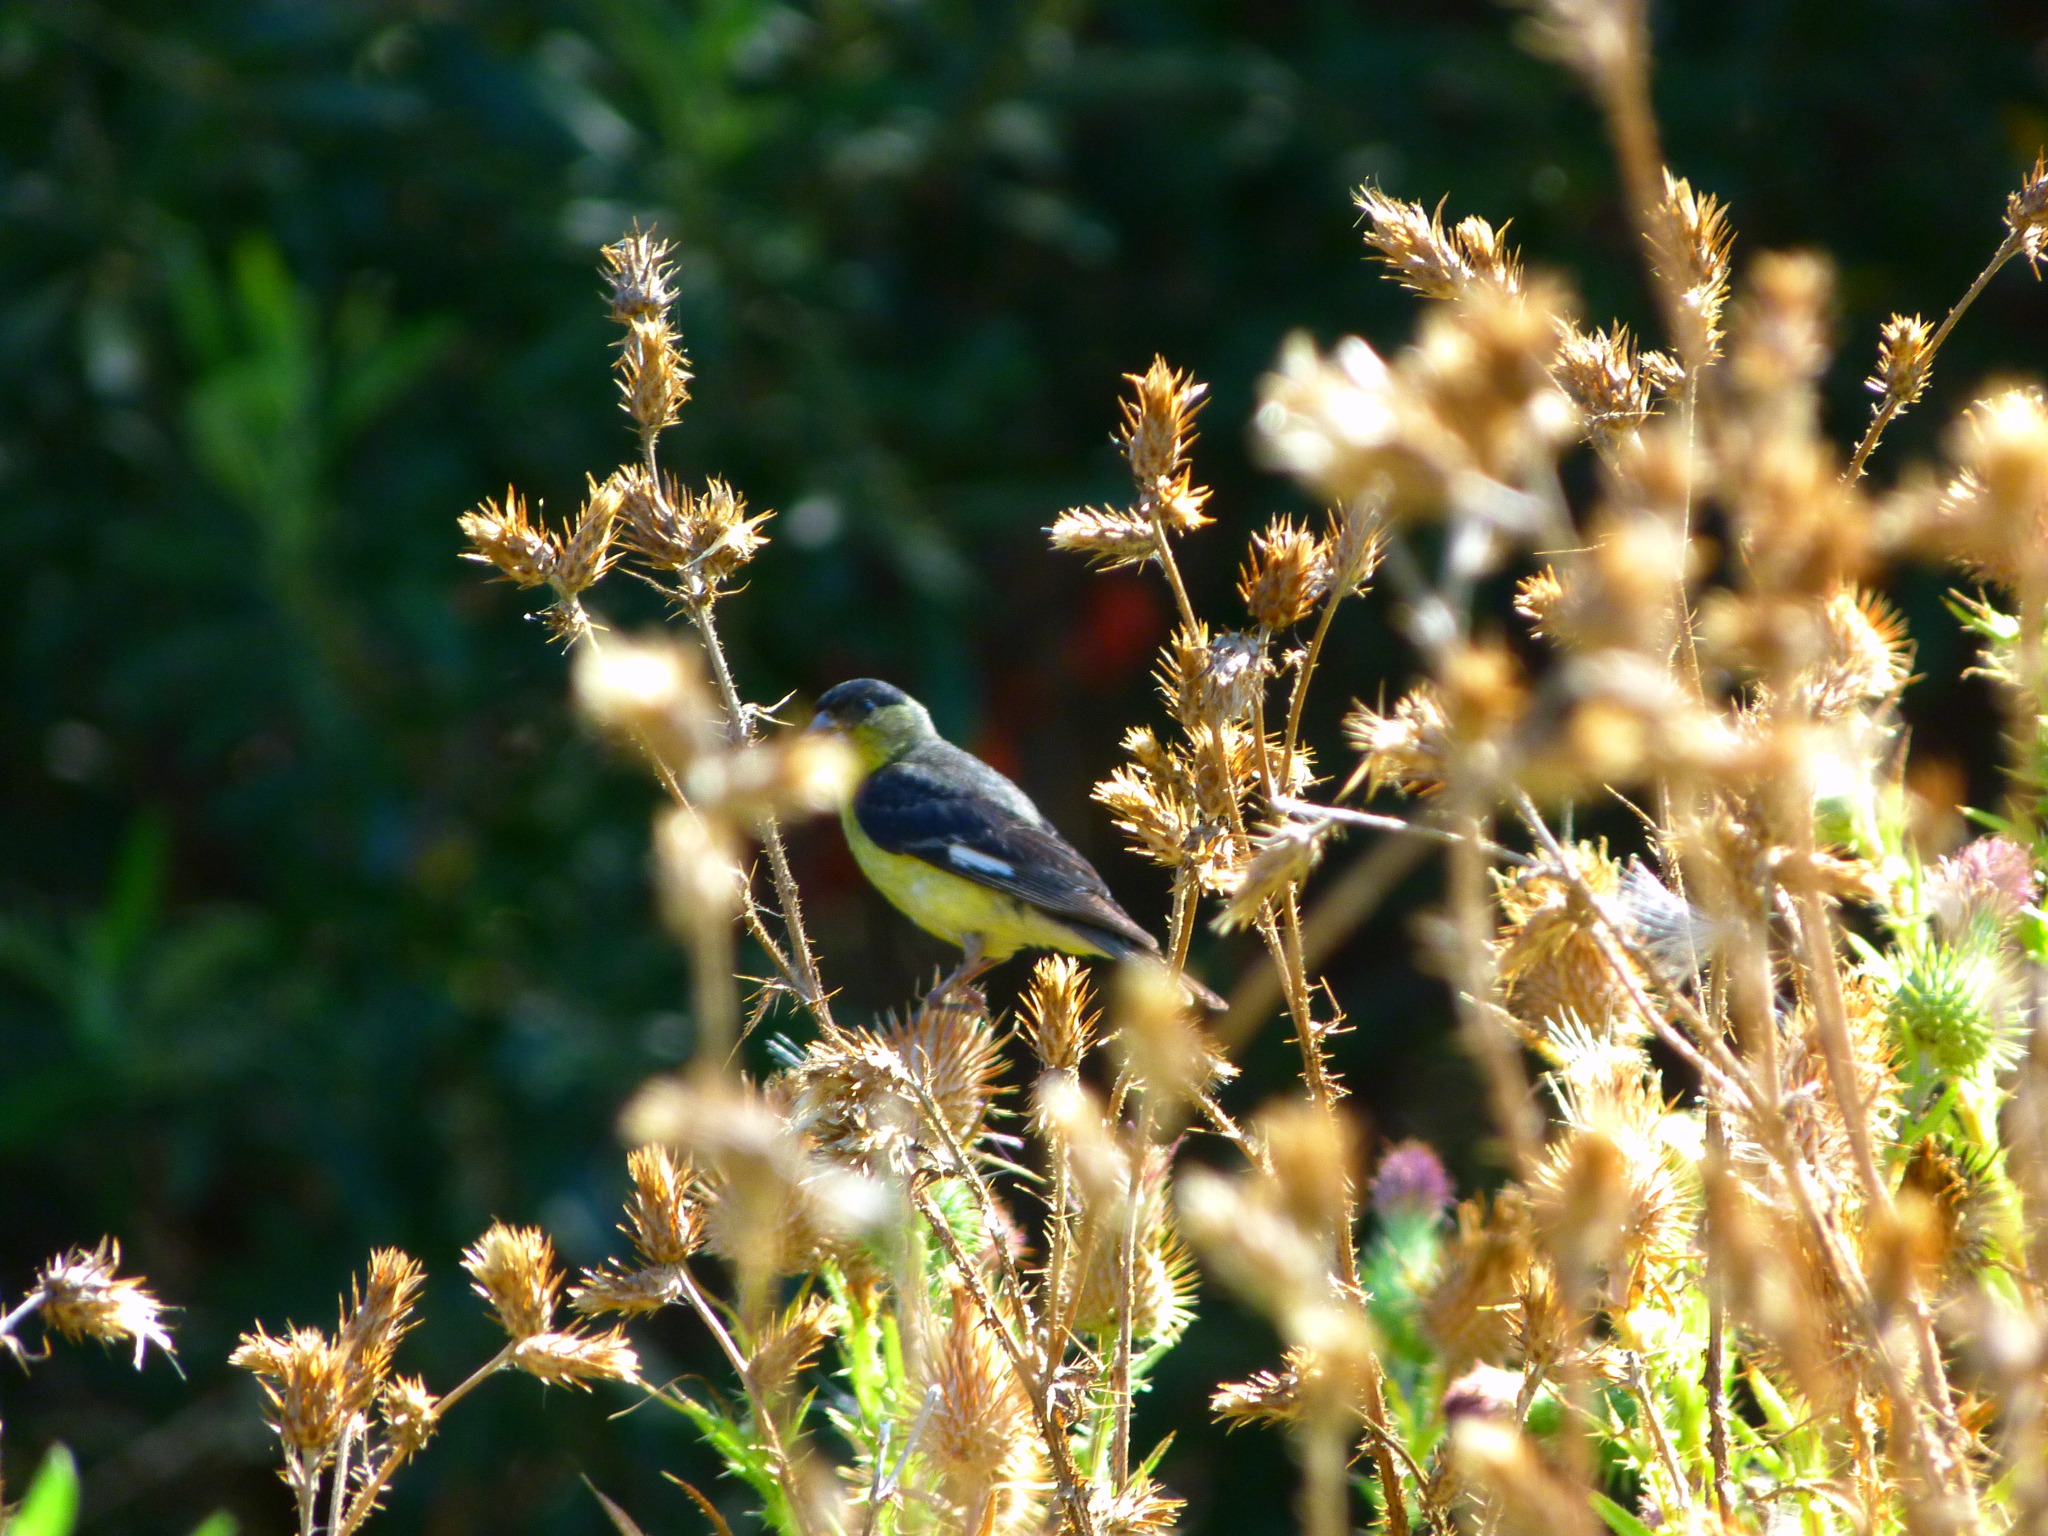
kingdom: Animalia
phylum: Chordata
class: Aves
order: Passeriformes
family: Fringillidae
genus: Spinus
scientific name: Spinus psaltria
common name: Lesser goldfinch
